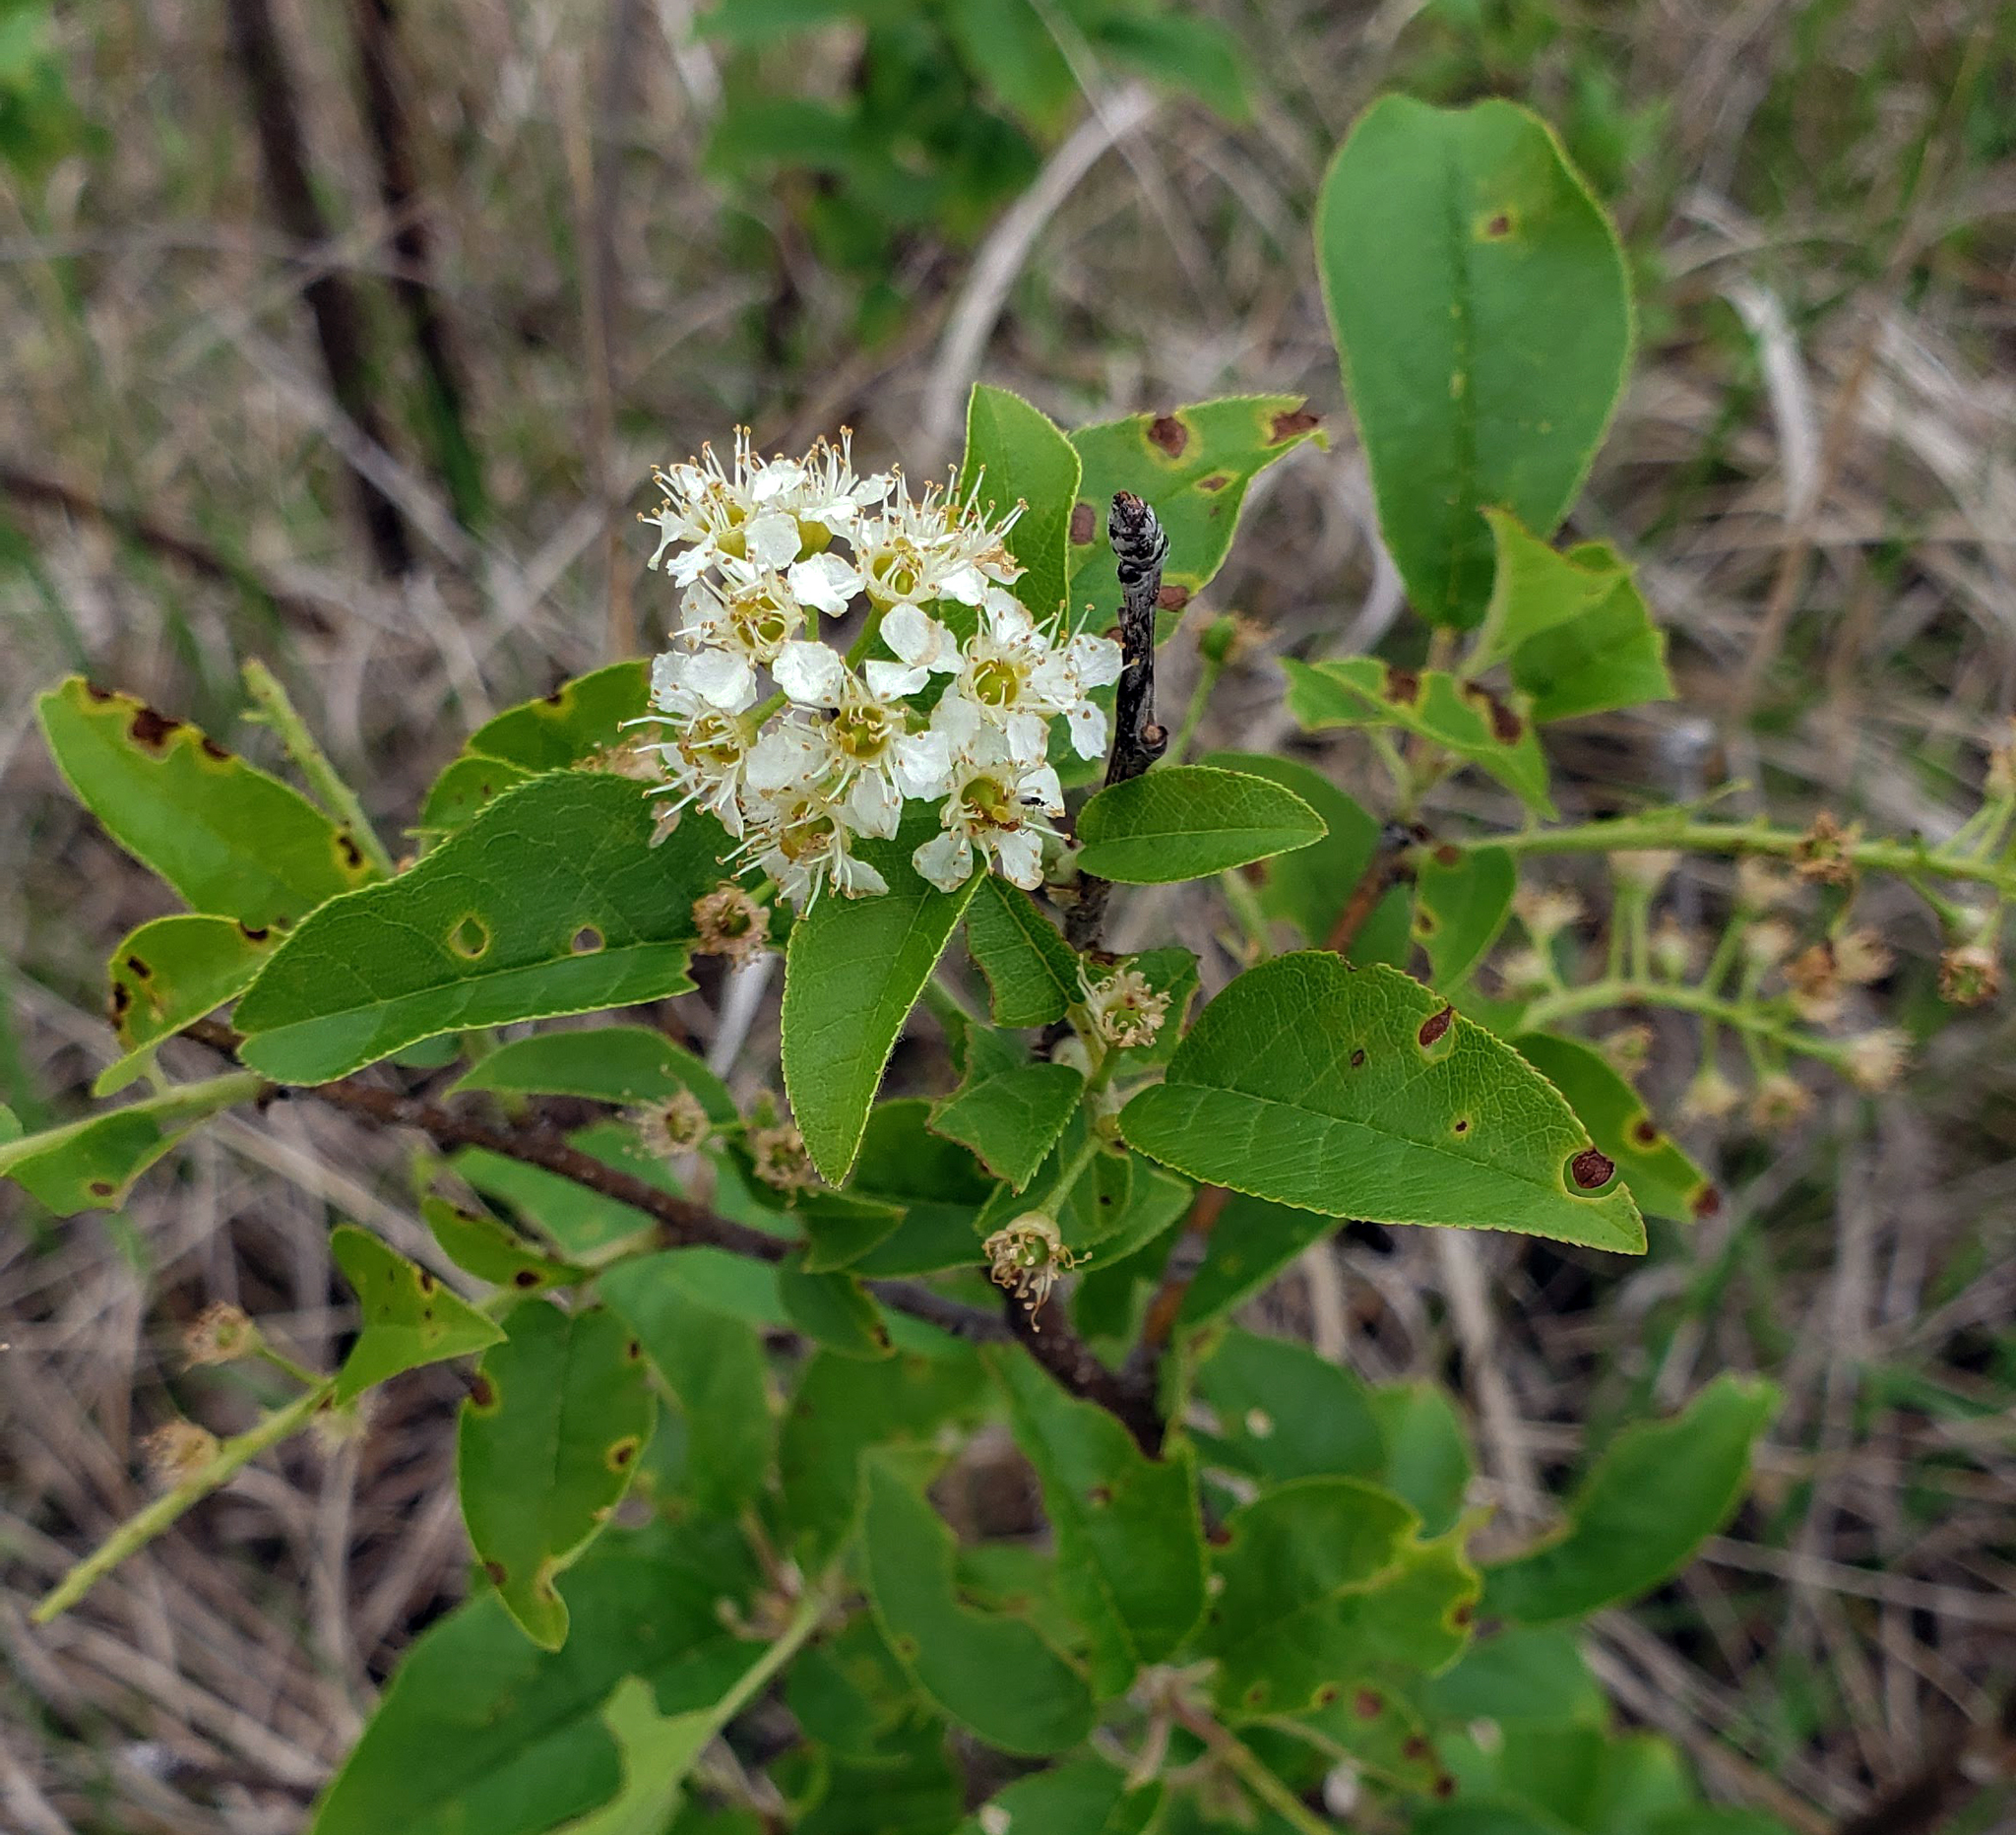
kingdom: Plantae
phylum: Tracheophyta
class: Magnoliopsida
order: Rosales
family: Rosaceae
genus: Prunus
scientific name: Prunus virginiana
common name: Chokecherry
